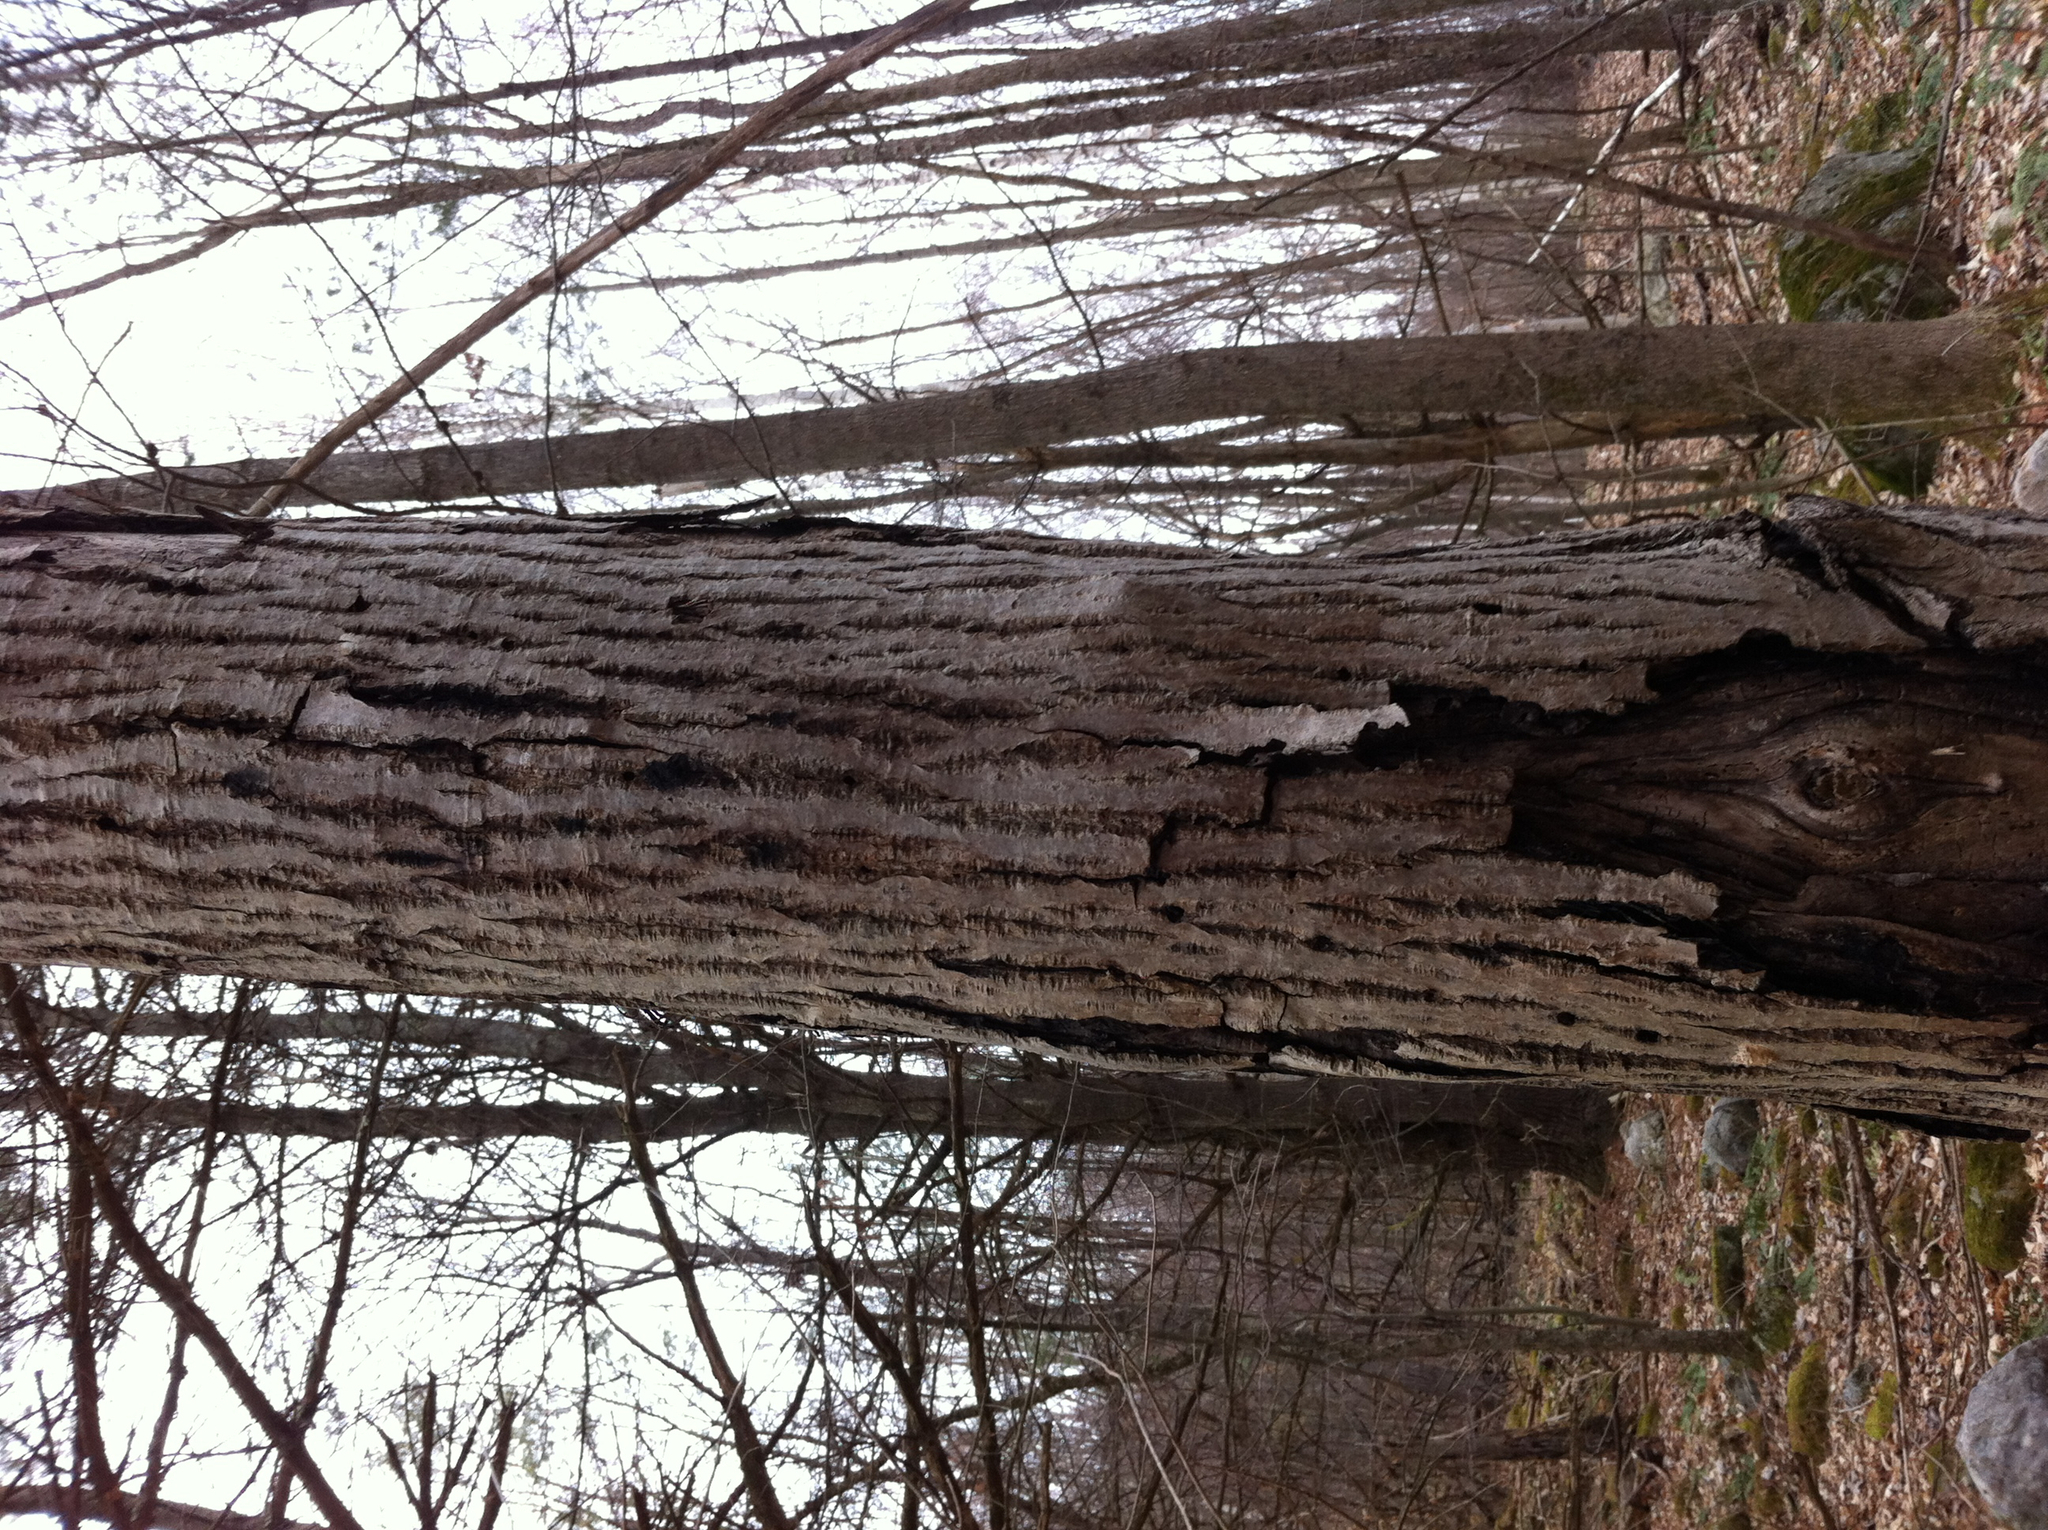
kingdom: Plantae
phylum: Tracheophyta
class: Magnoliopsida
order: Fagales
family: Juglandaceae
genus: Juglans
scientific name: Juglans cinerea
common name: Butternut
